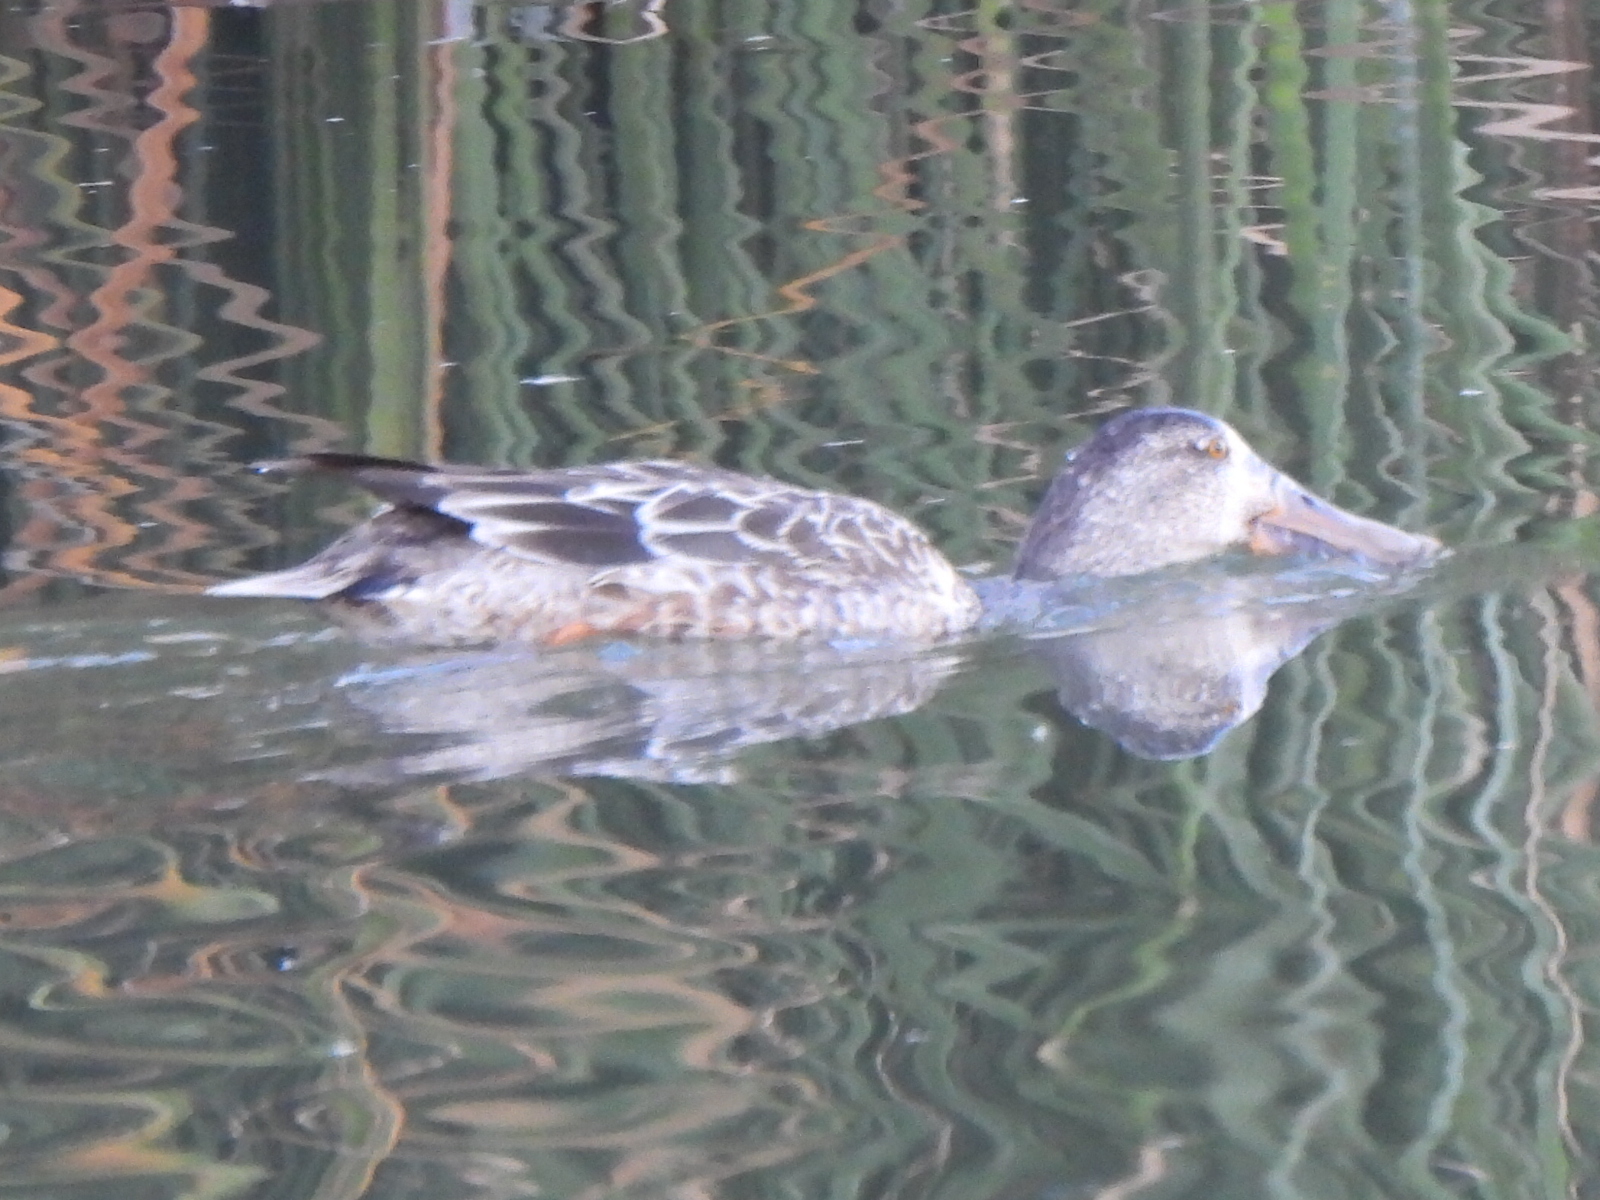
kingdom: Animalia
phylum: Chordata
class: Aves
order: Anseriformes
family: Anatidae
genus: Spatula
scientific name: Spatula clypeata
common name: Northern shoveler
